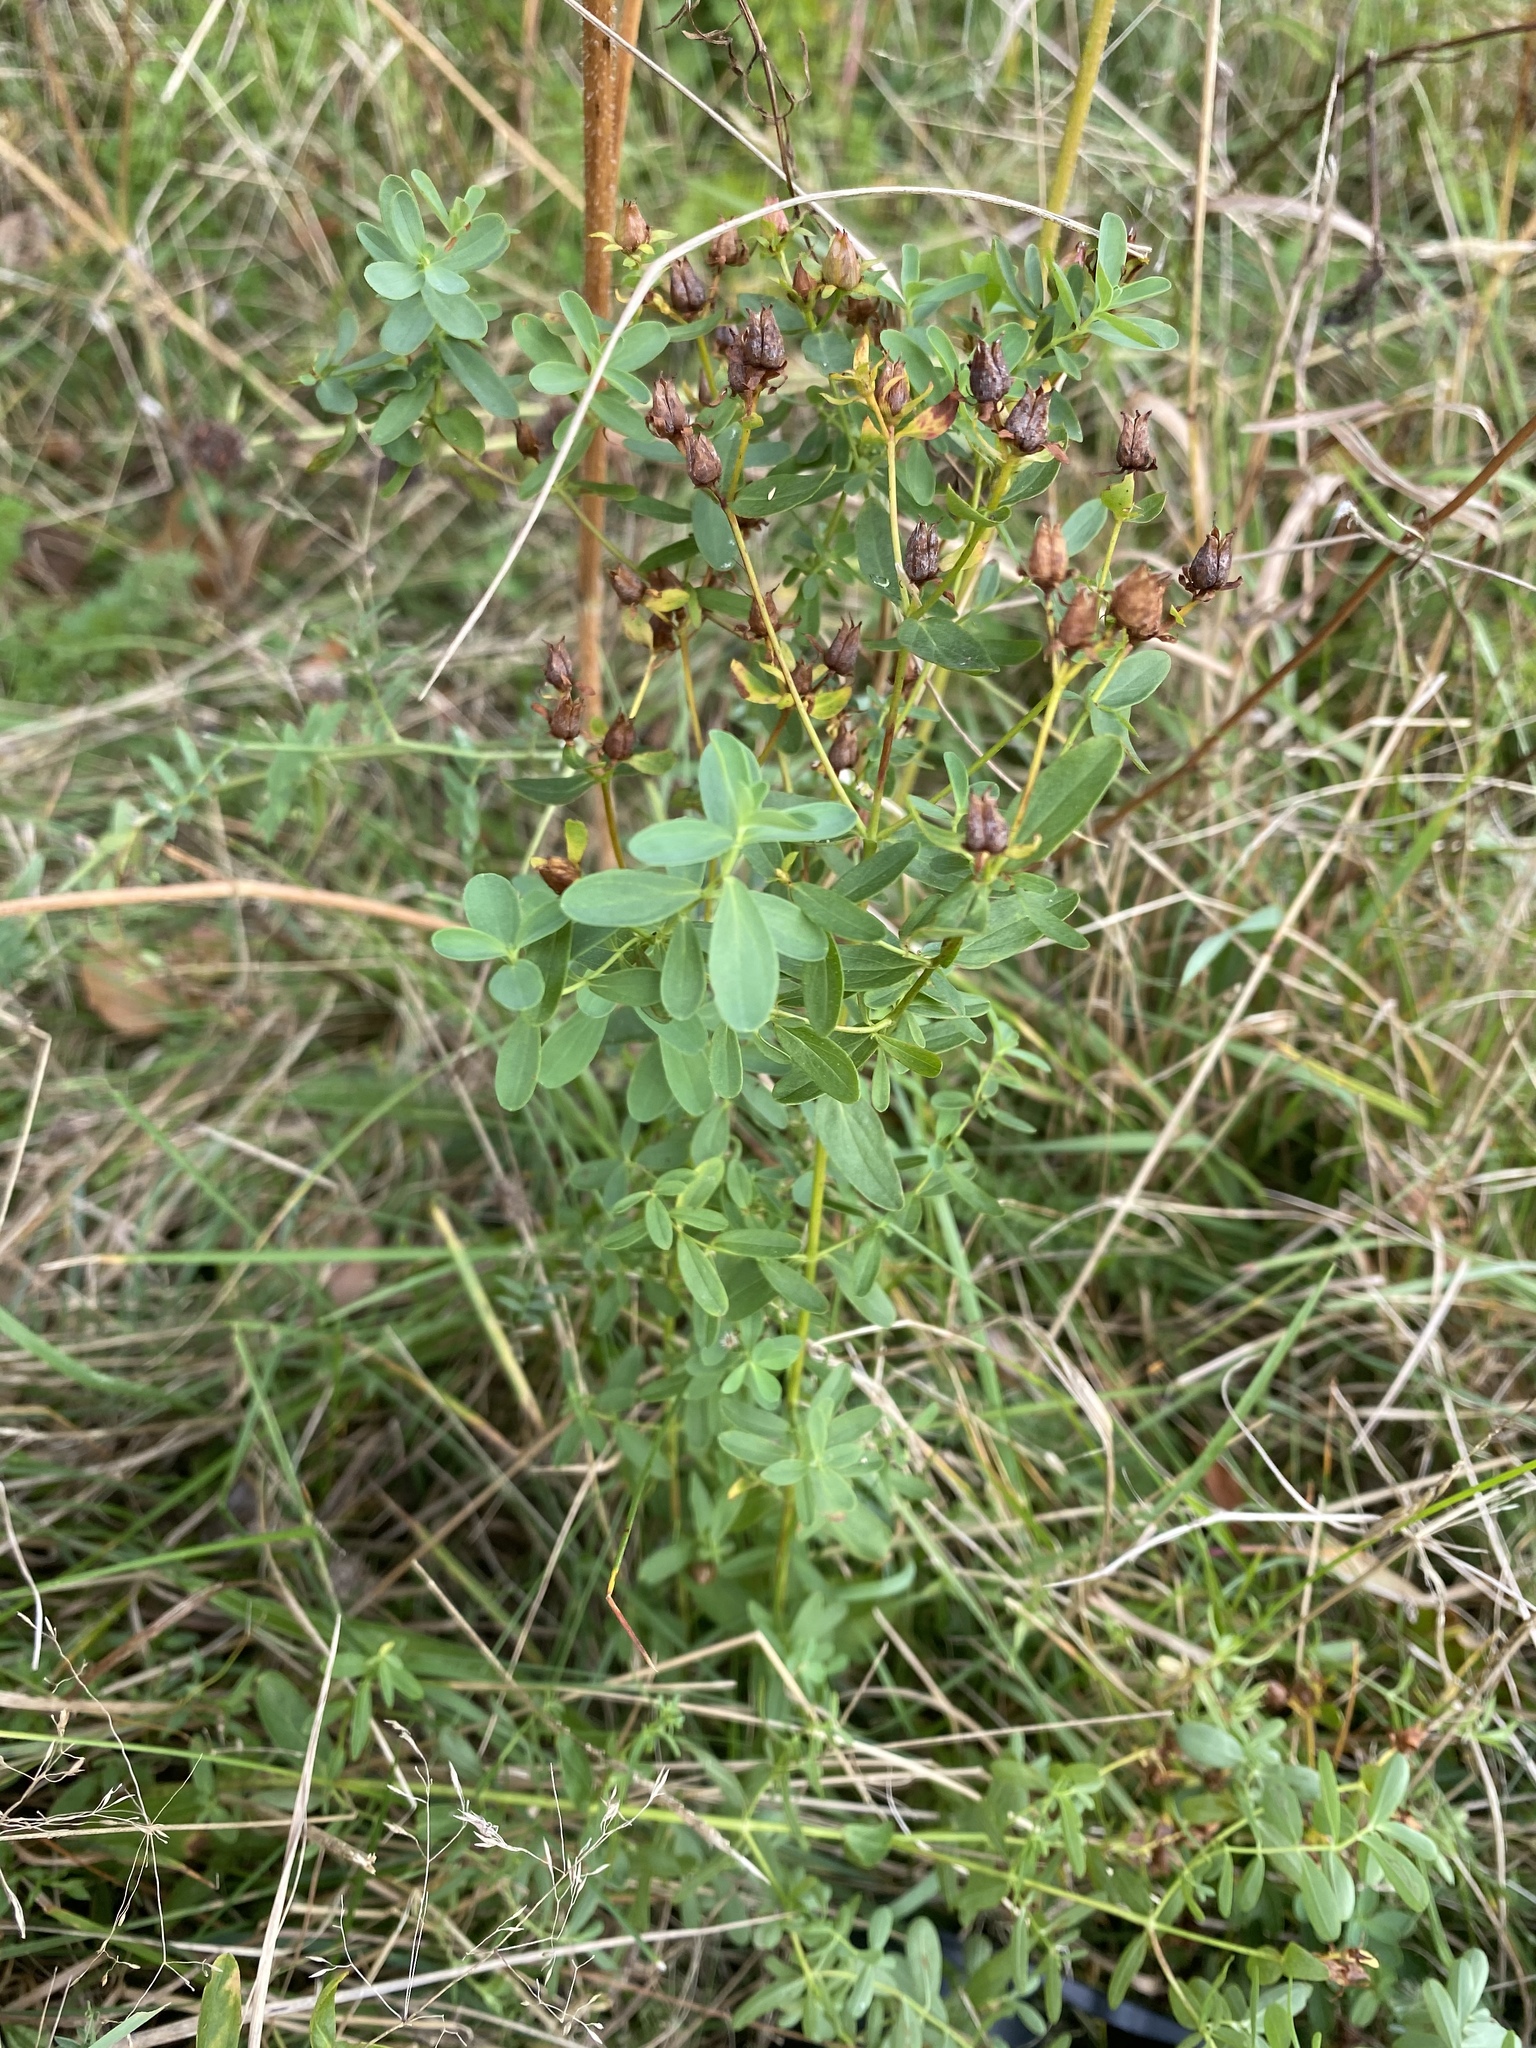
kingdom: Plantae
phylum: Tracheophyta
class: Magnoliopsida
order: Malpighiales
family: Hypericaceae
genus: Hypericum
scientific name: Hypericum perforatum
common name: Common st. johnswort
